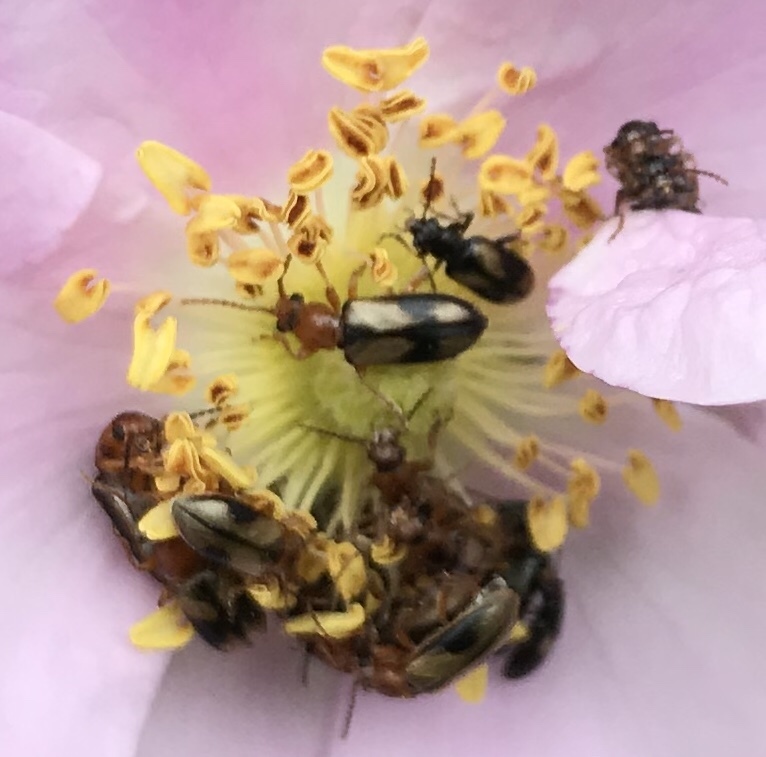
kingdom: Animalia
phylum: Arthropoda
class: Insecta
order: Coleoptera
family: Orsodacnidae
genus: Orsodacne
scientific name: Orsodacne atra
